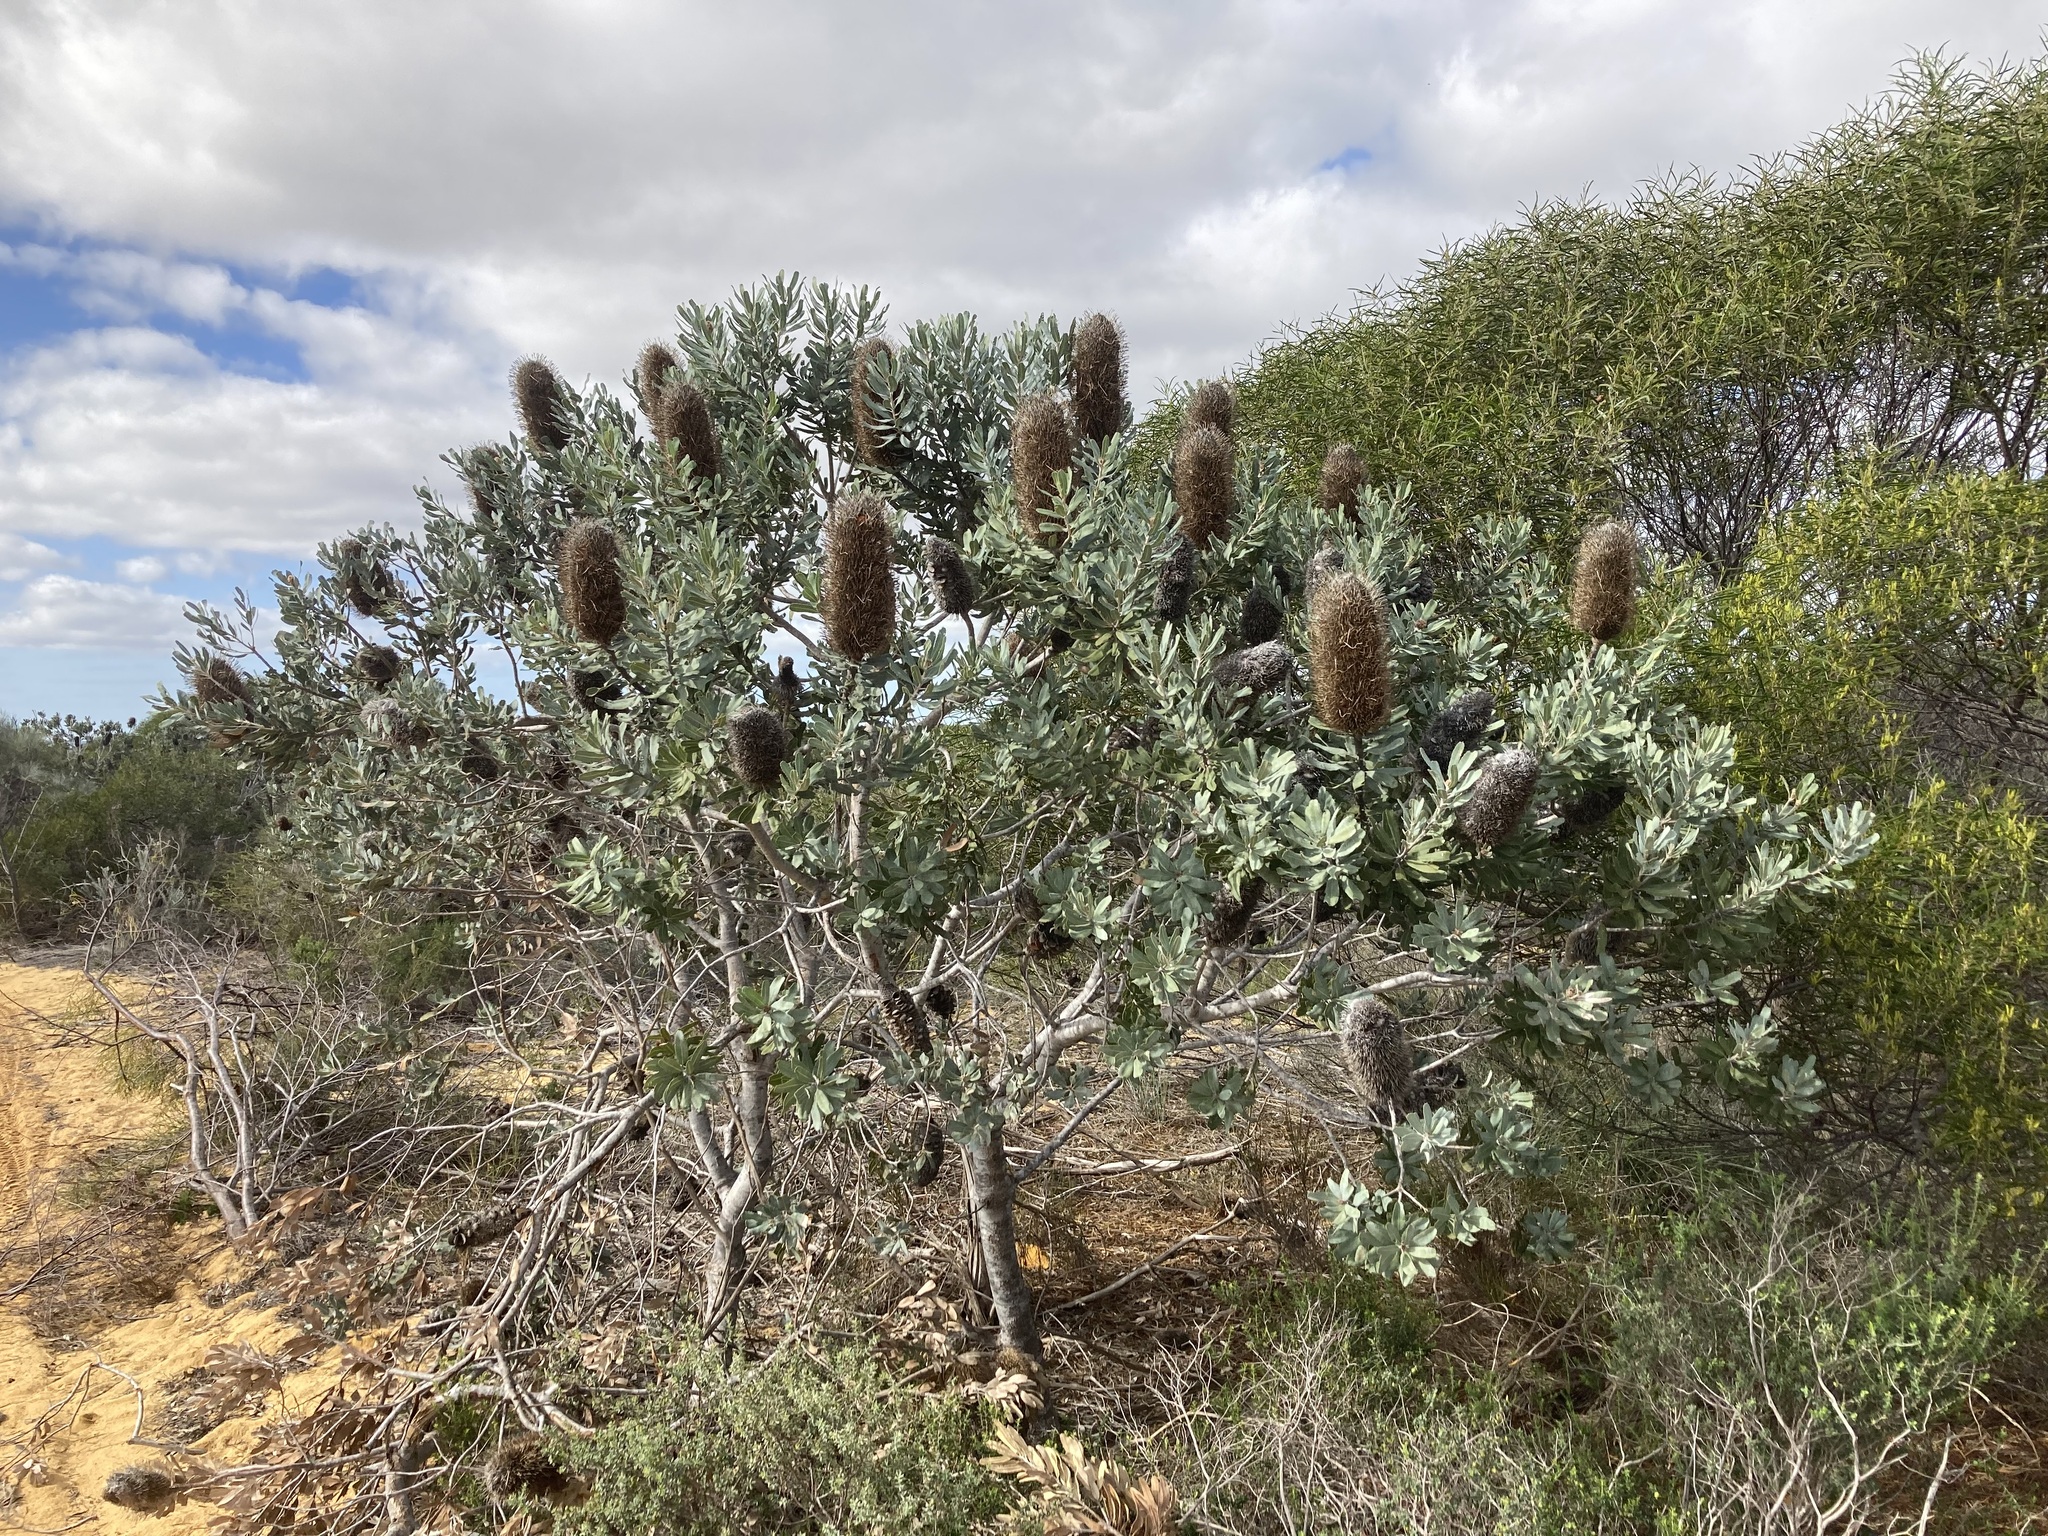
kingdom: Plantae
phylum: Tracheophyta
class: Magnoliopsida
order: Proteales
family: Proteaceae
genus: Banksia
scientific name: Banksia sceptrum
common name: Sceptre banksia
